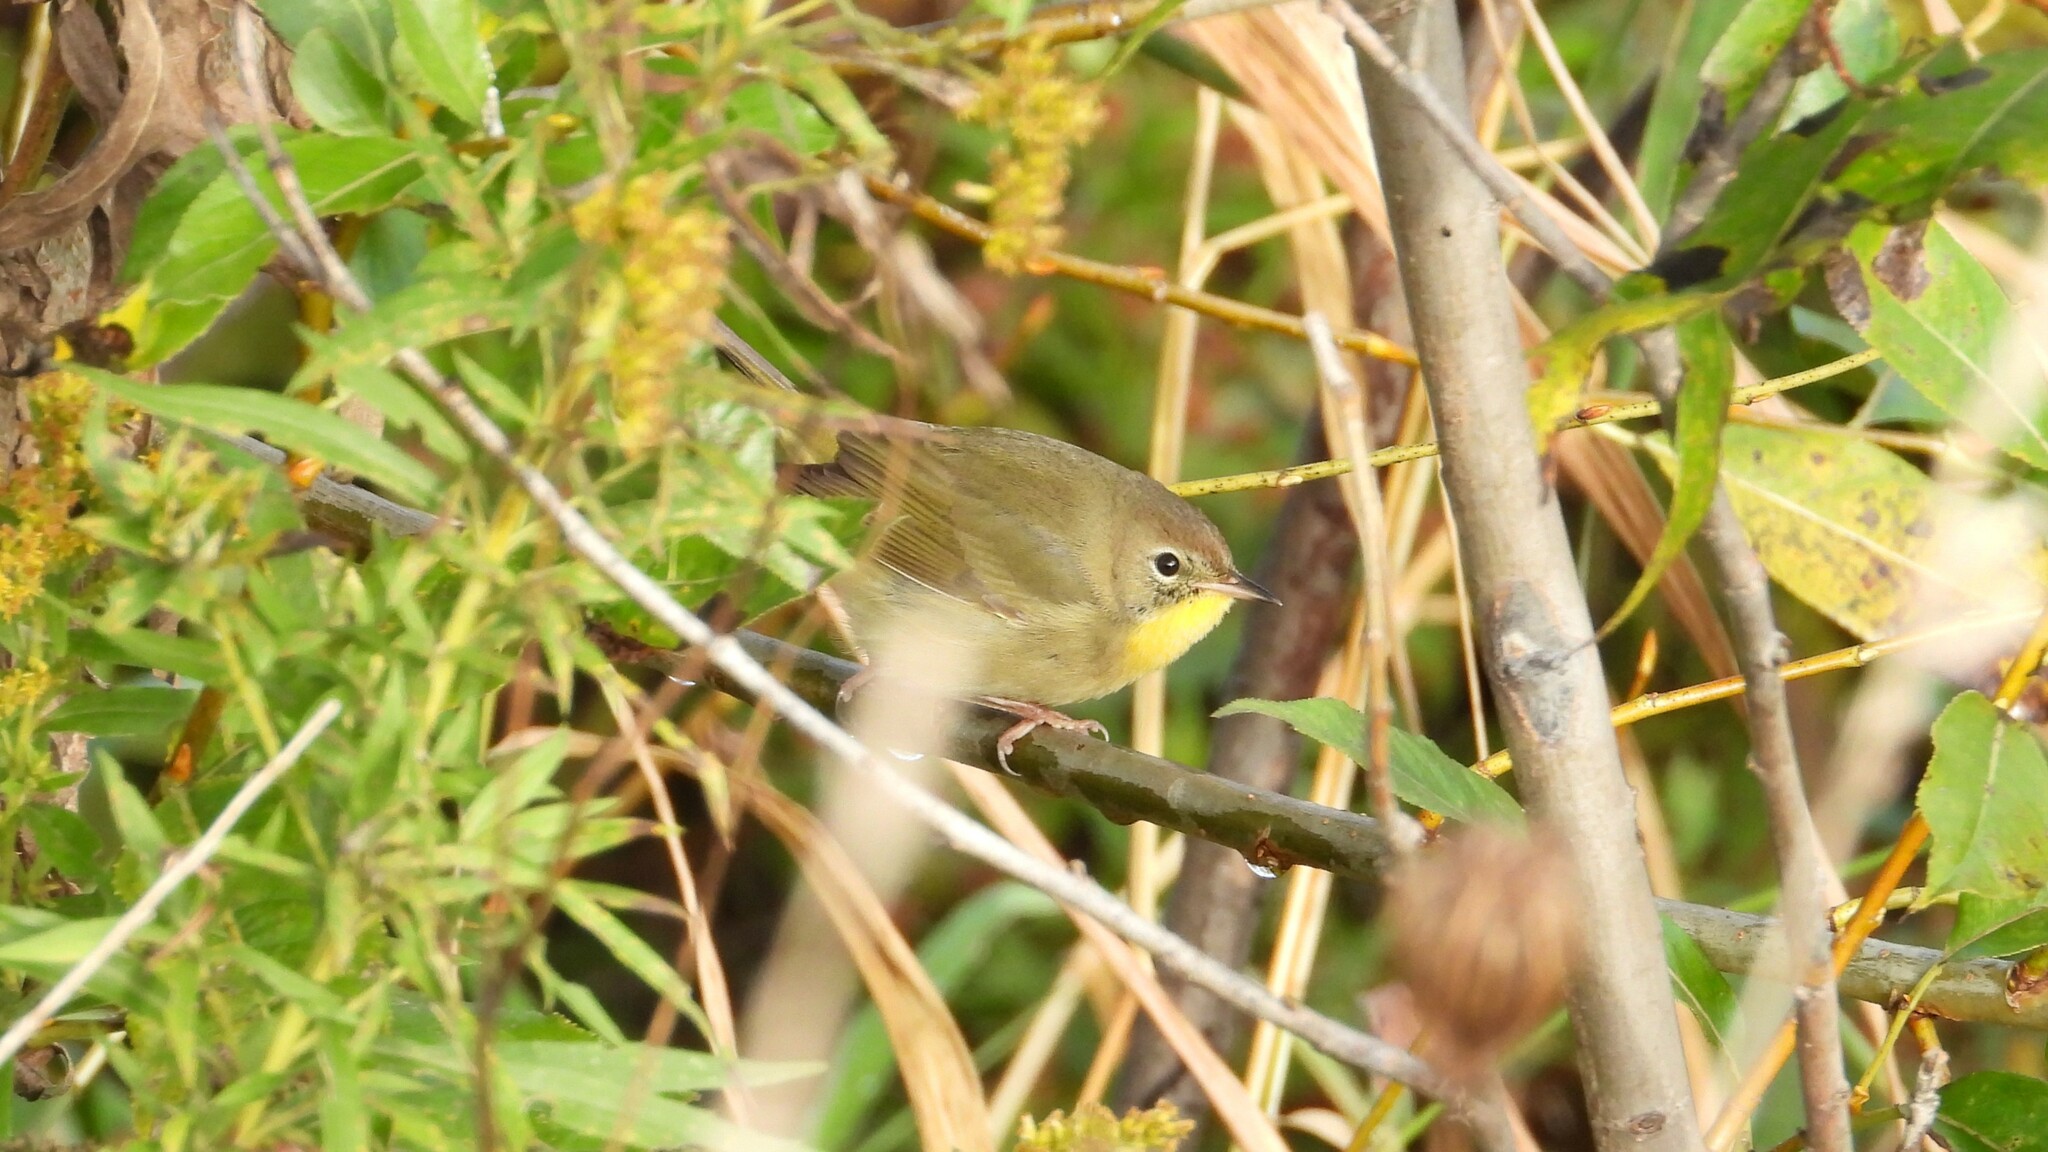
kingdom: Animalia
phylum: Chordata
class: Aves
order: Passeriformes
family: Parulidae
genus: Geothlypis
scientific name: Geothlypis trichas
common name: Common yellowthroat
